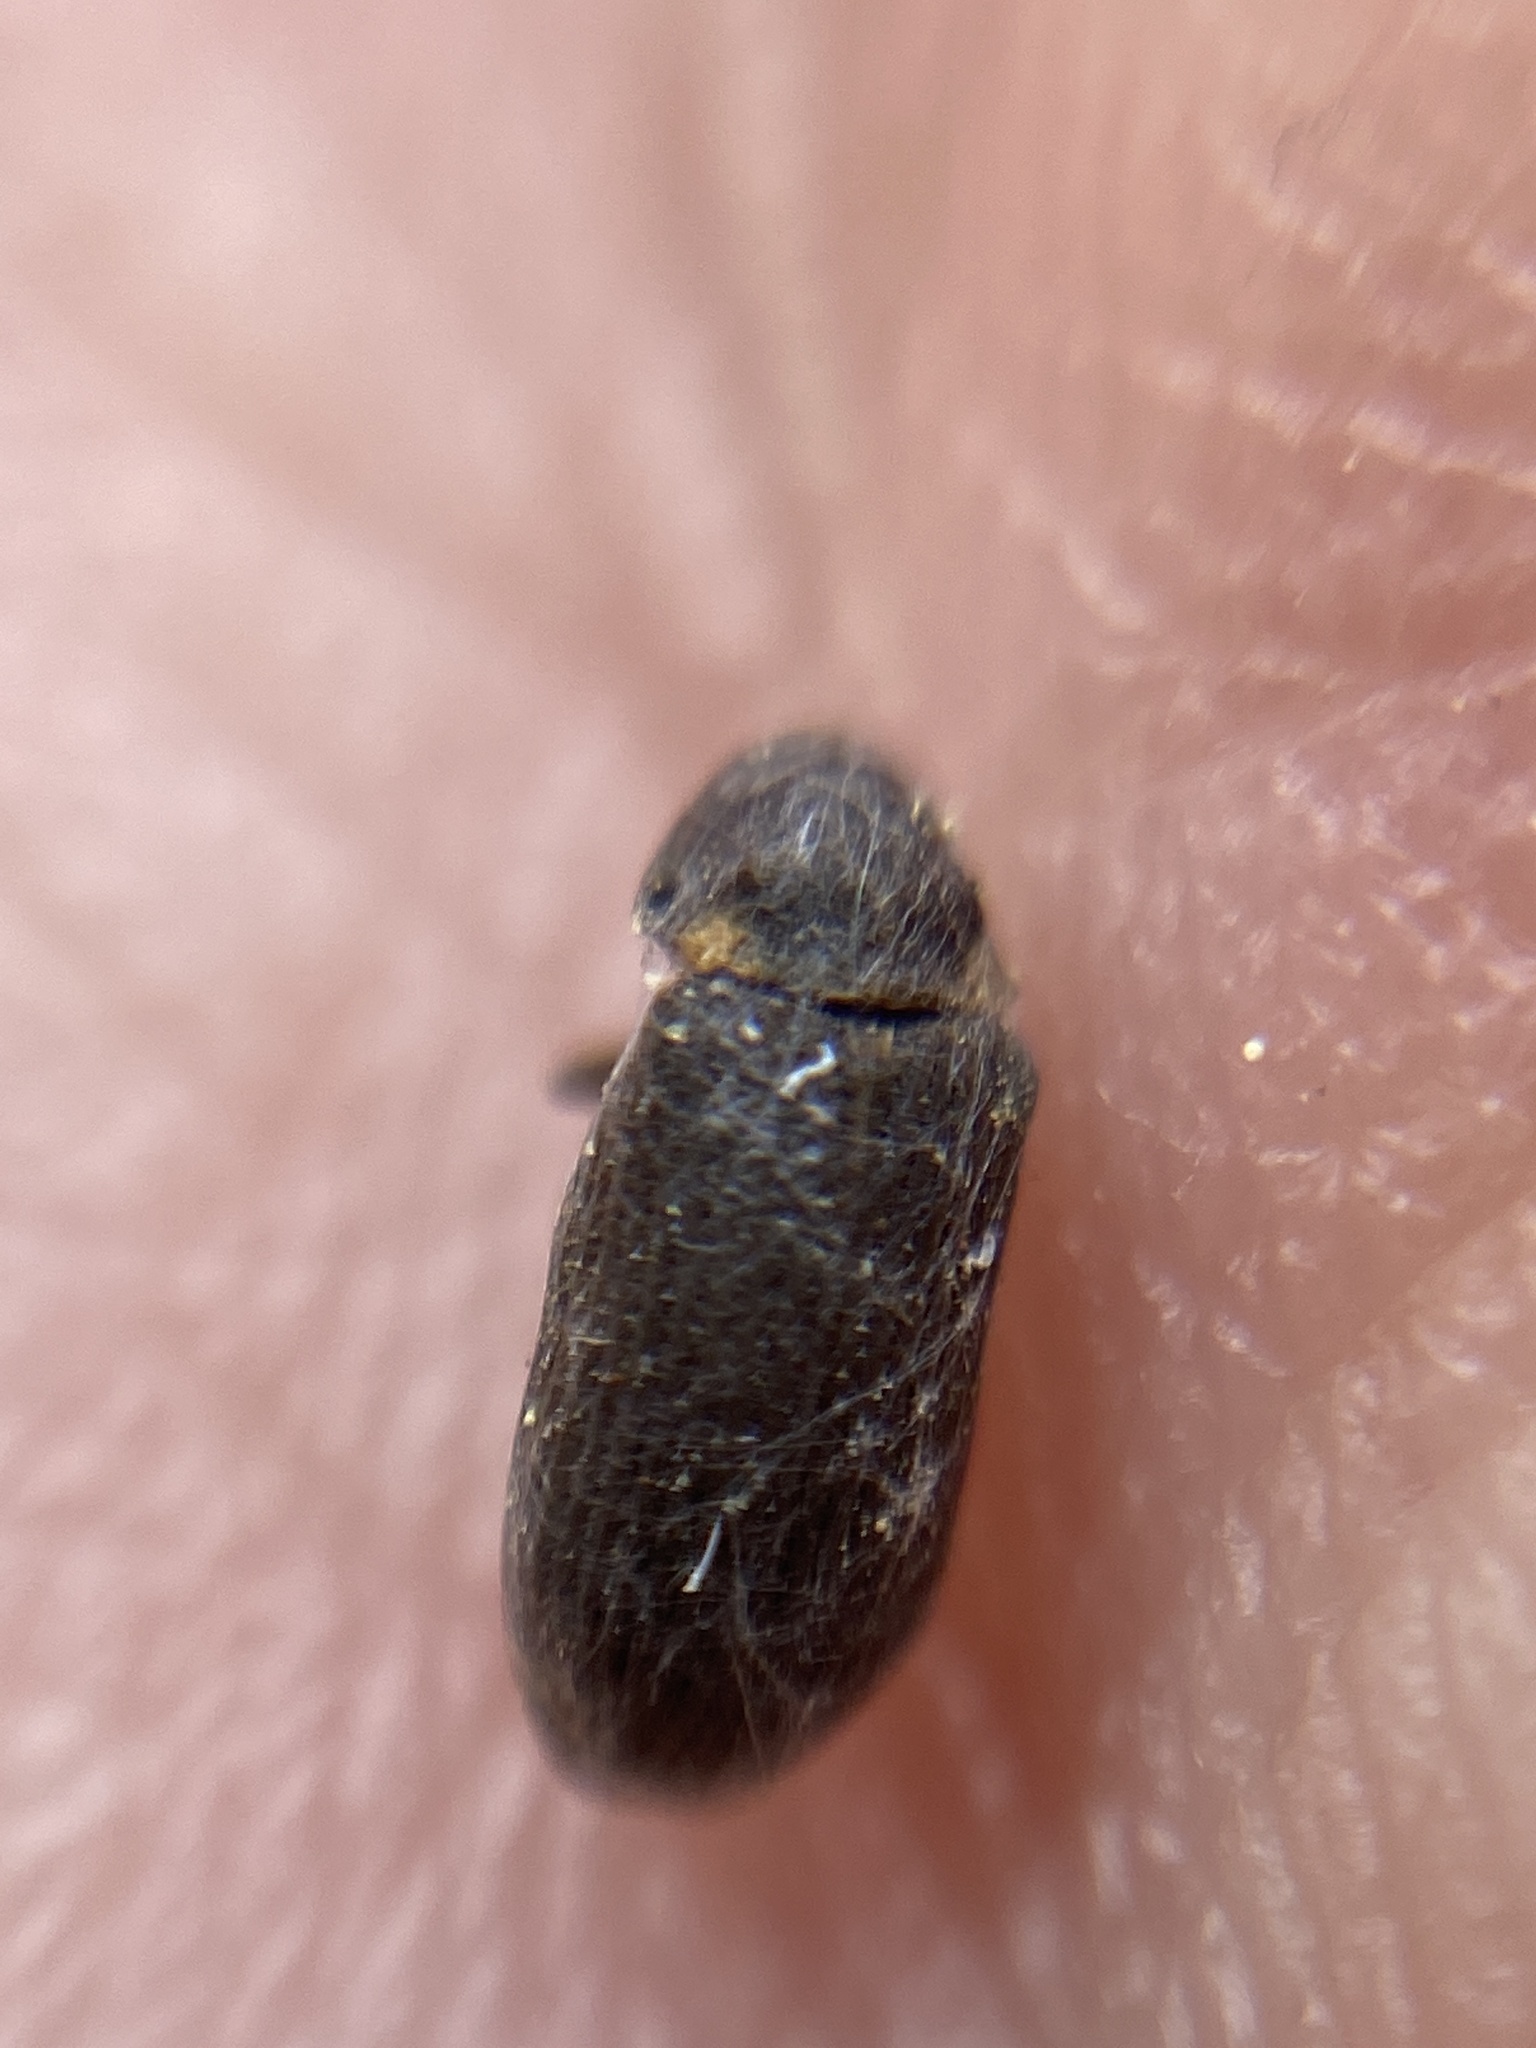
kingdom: Animalia
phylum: Arthropoda
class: Insecta
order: Coleoptera
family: Anobiidae
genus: Hadrobregmus
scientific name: Hadrobregmus pertinax
